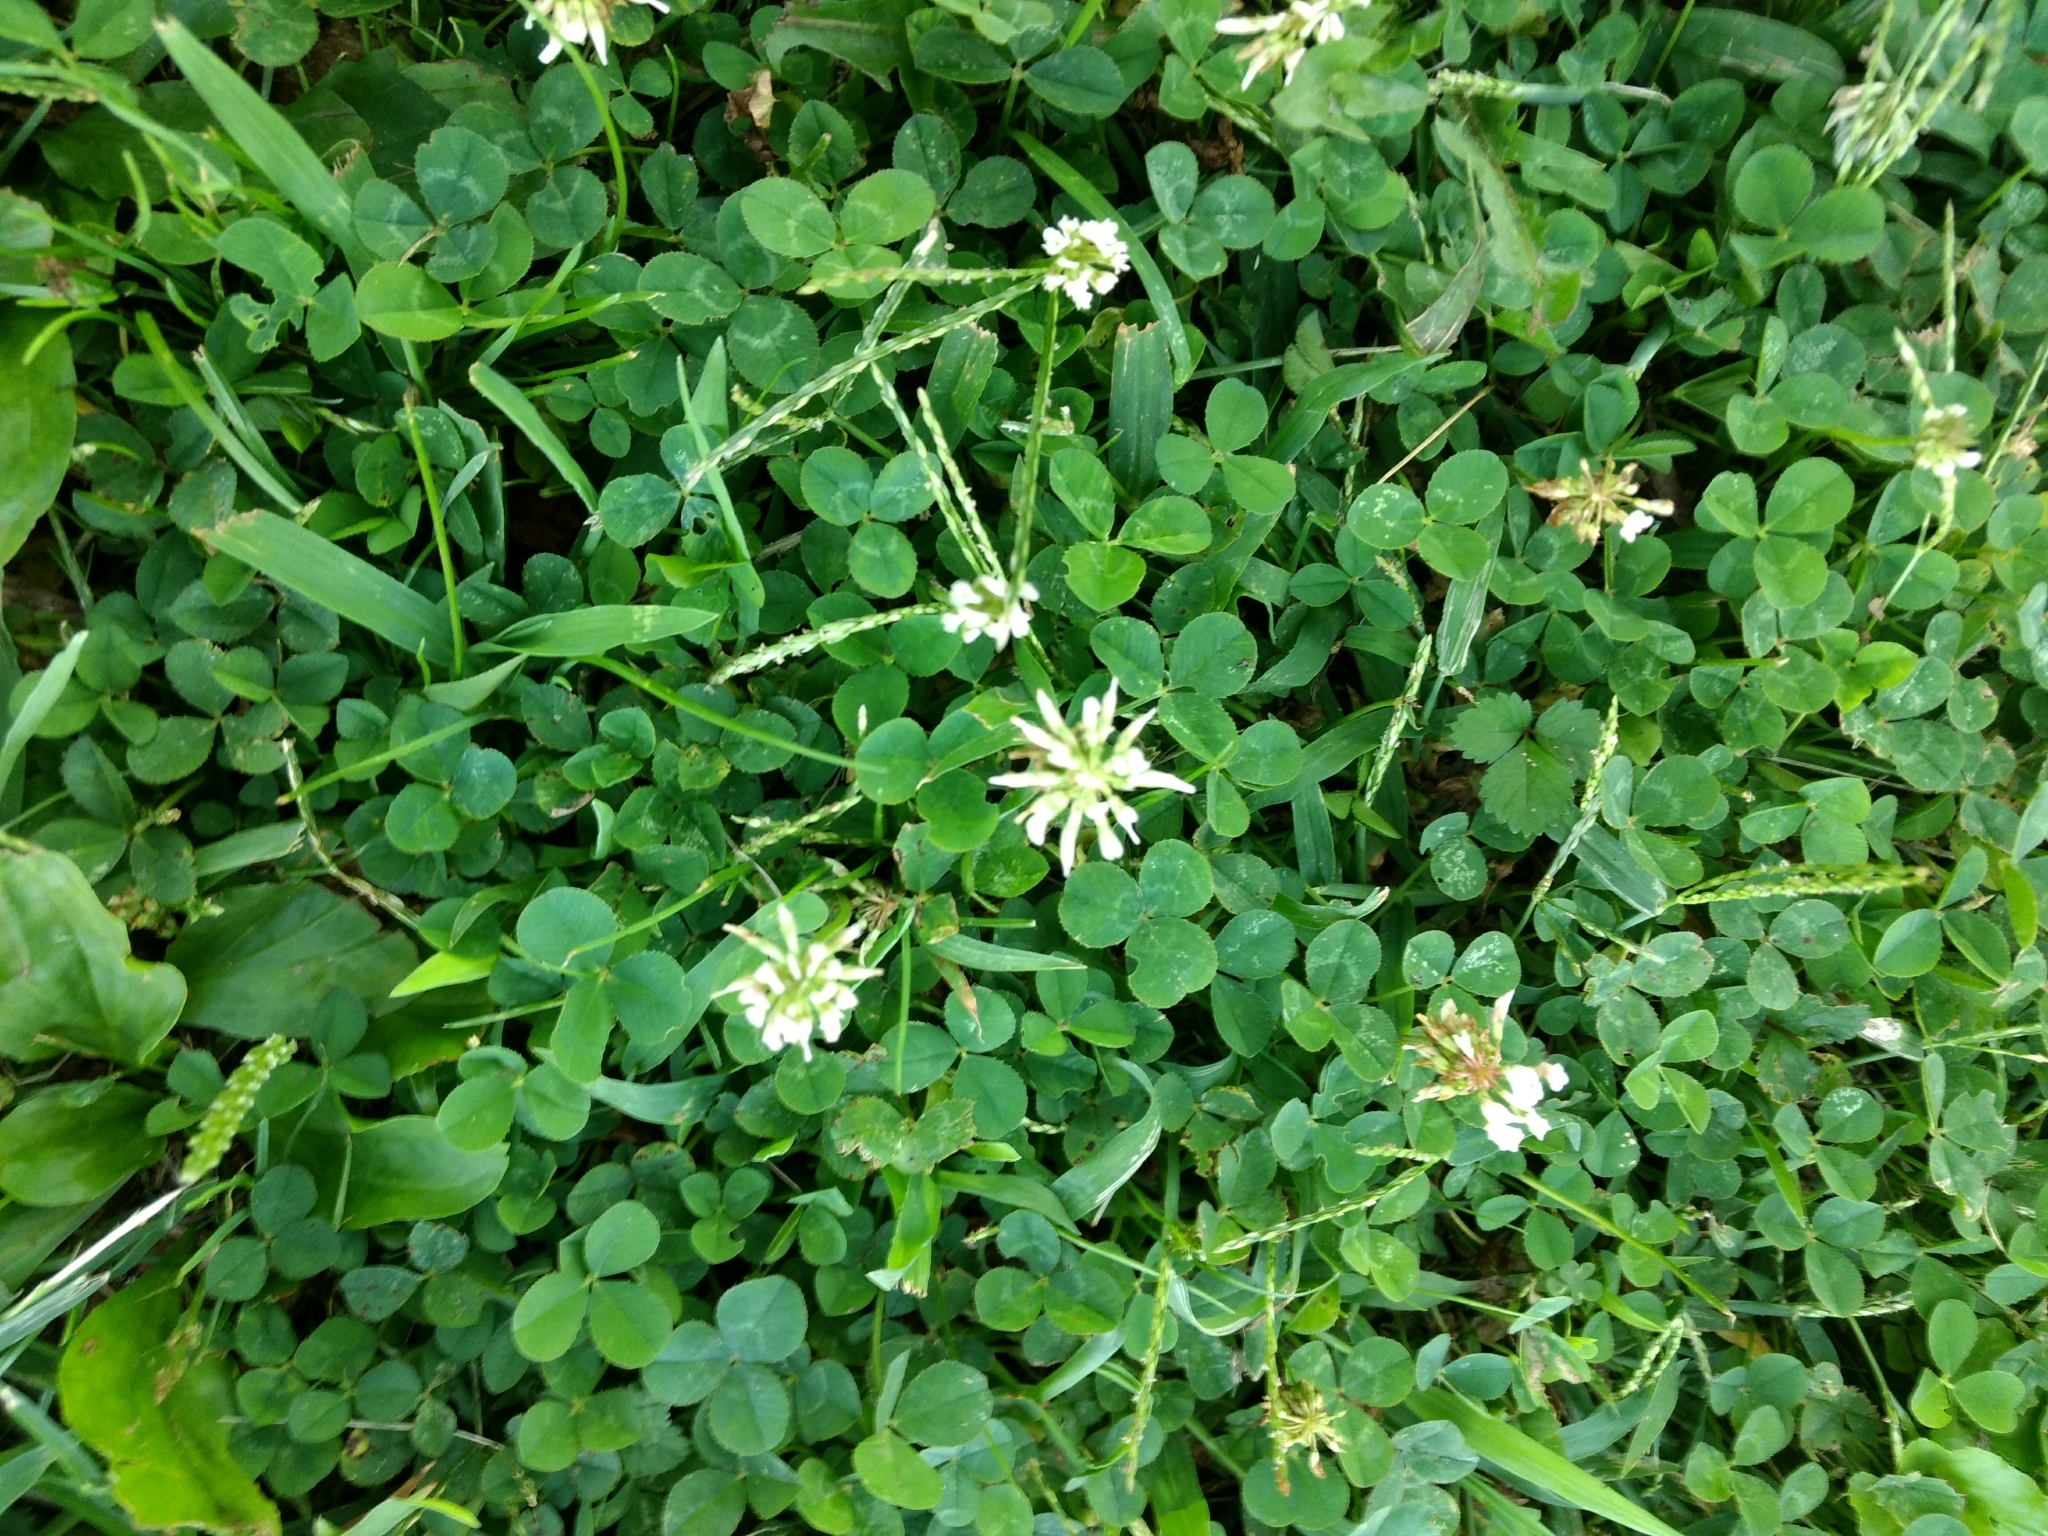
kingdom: Plantae
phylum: Tracheophyta
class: Magnoliopsida
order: Fabales
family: Fabaceae
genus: Trifolium
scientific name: Trifolium repens
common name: White clover
